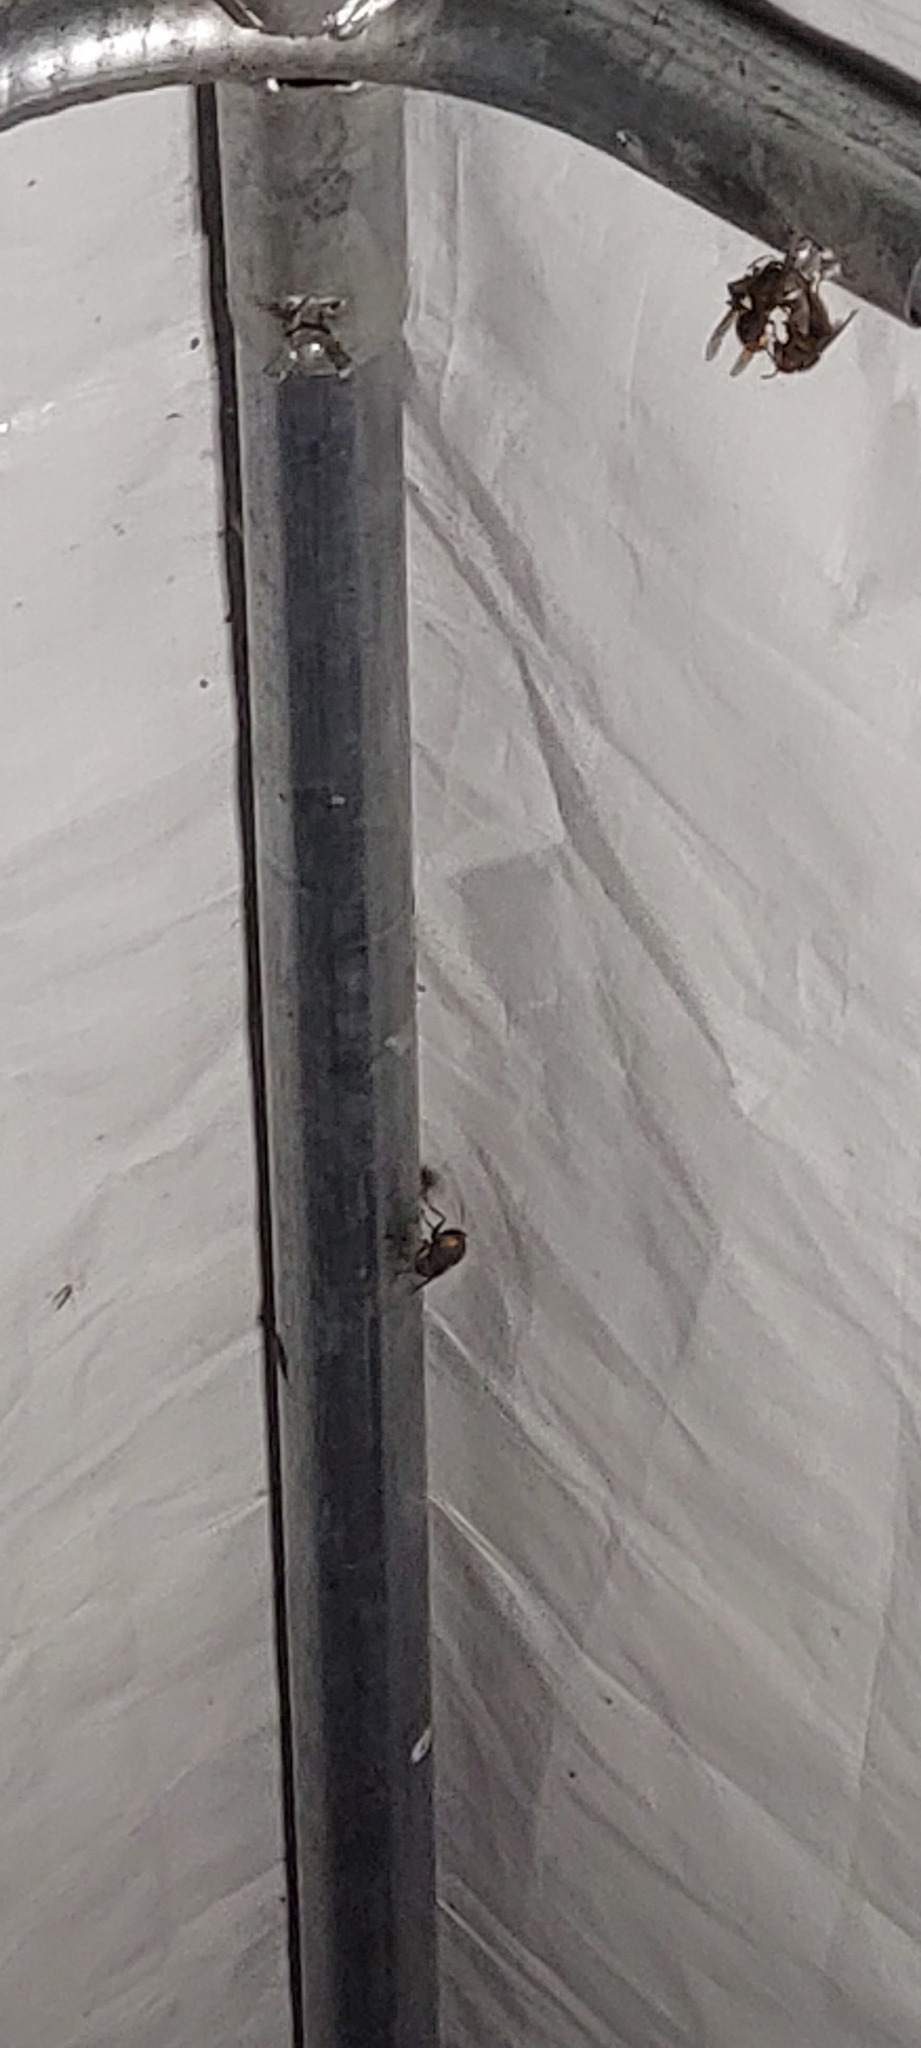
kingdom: Animalia
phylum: Arthropoda
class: Insecta
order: Hymenoptera
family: Vespidae
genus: Vespa
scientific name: Vespa crabro
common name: Hornet
